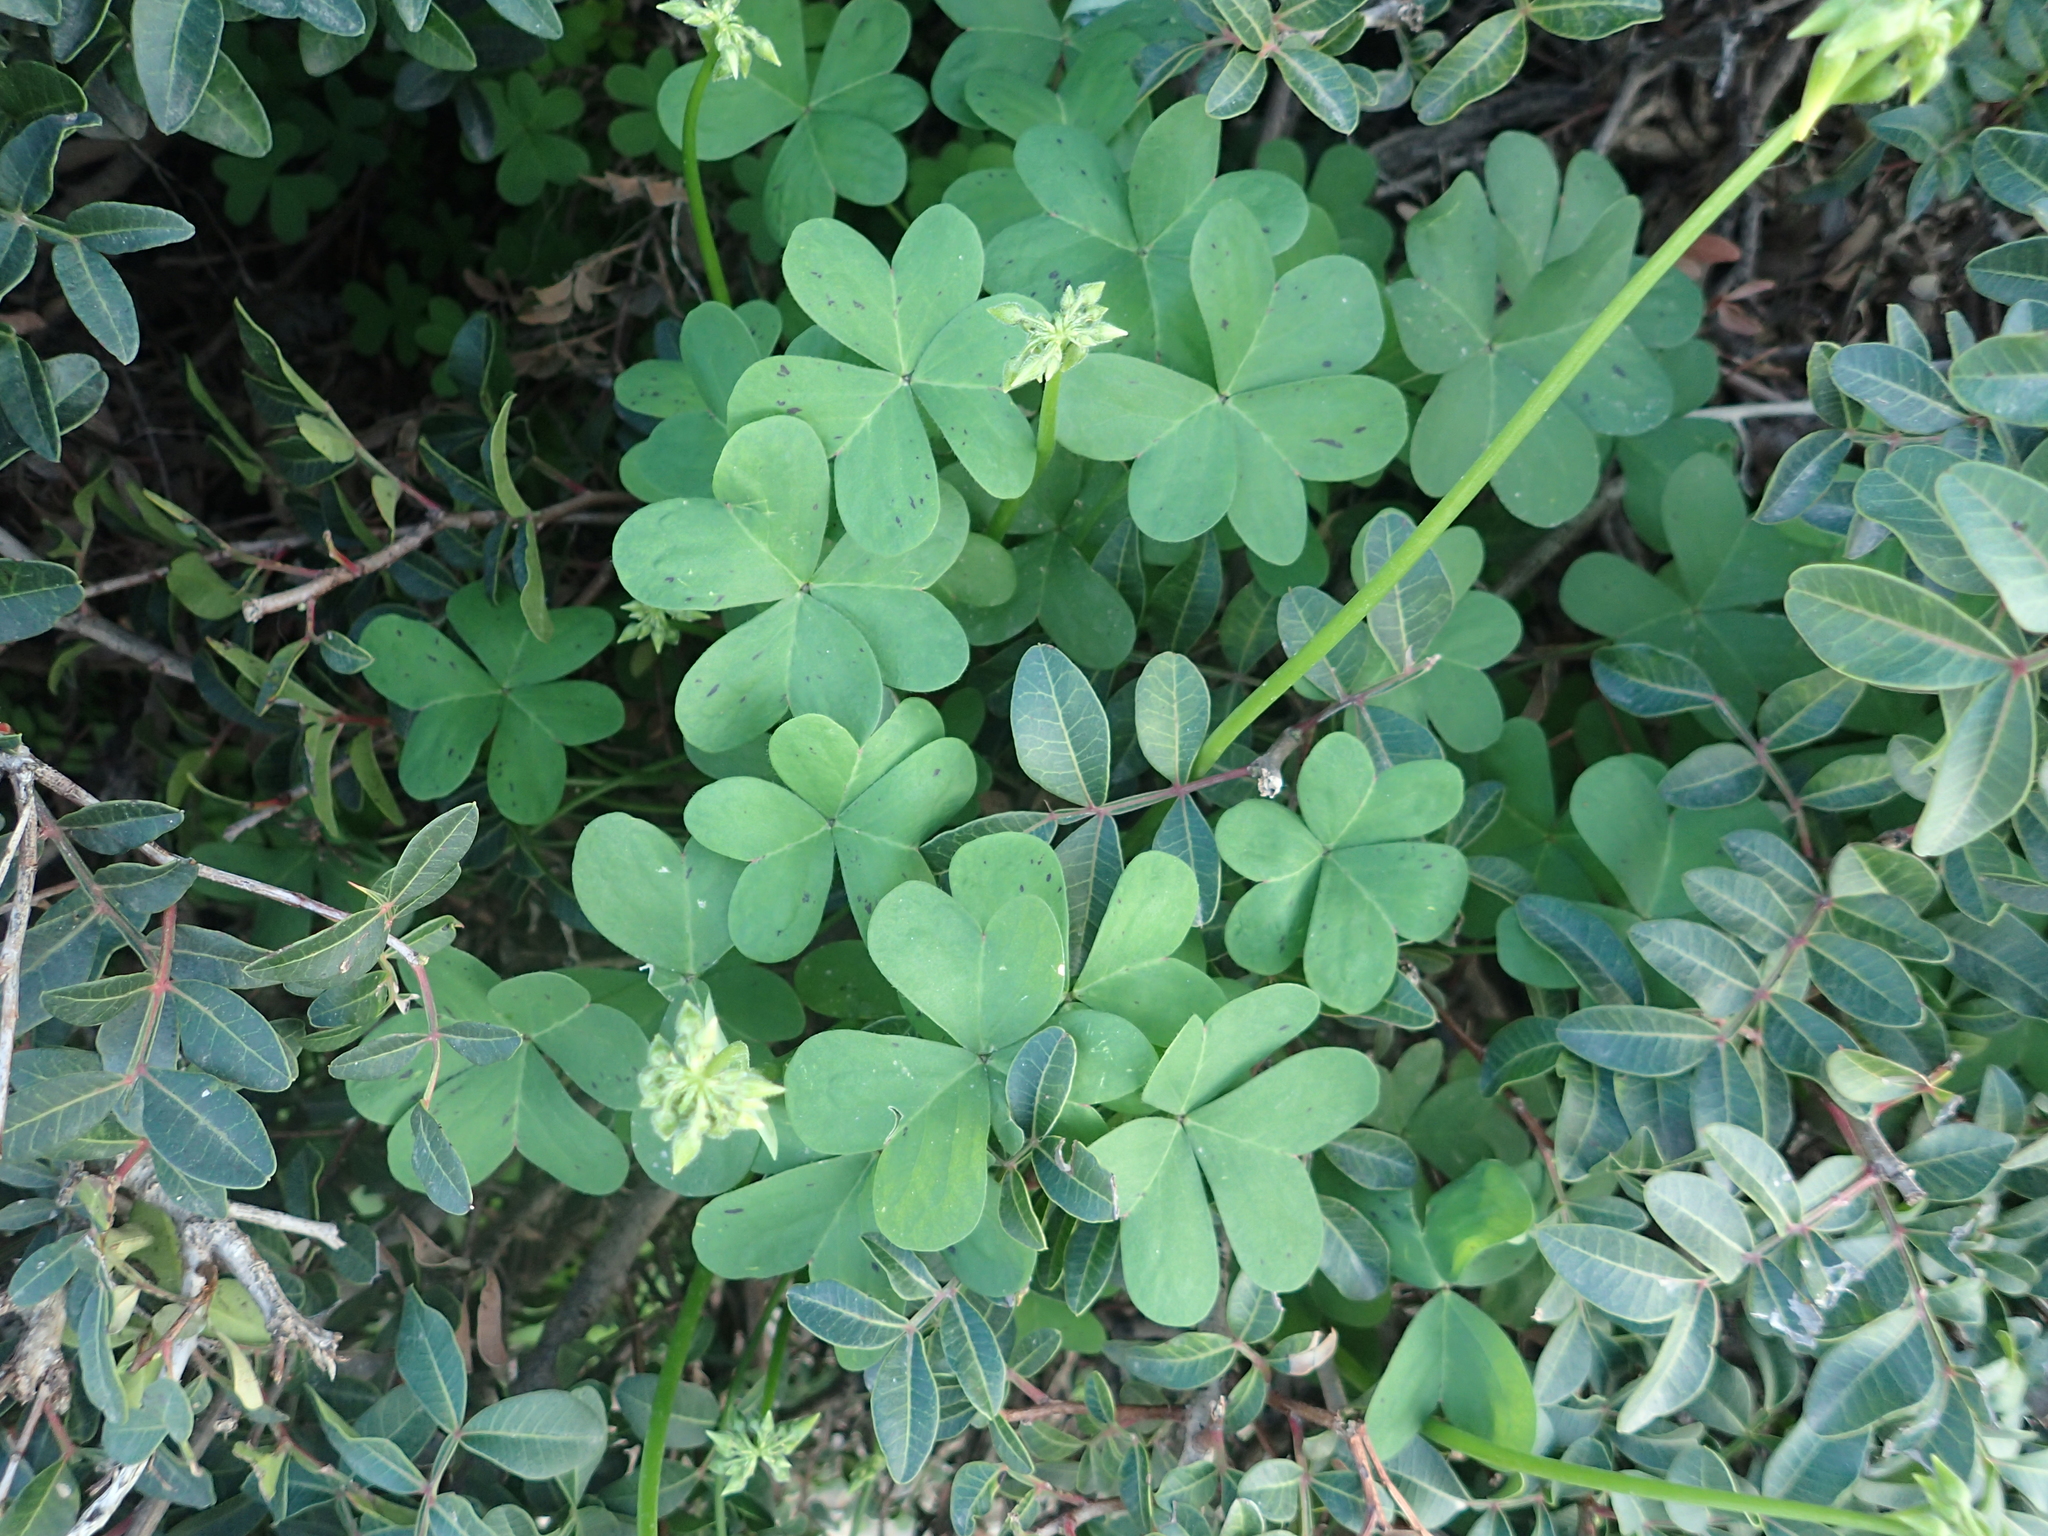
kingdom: Plantae
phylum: Tracheophyta
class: Magnoliopsida
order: Oxalidales
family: Oxalidaceae
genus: Oxalis
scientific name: Oxalis pes-caprae
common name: Bermuda-buttercup
